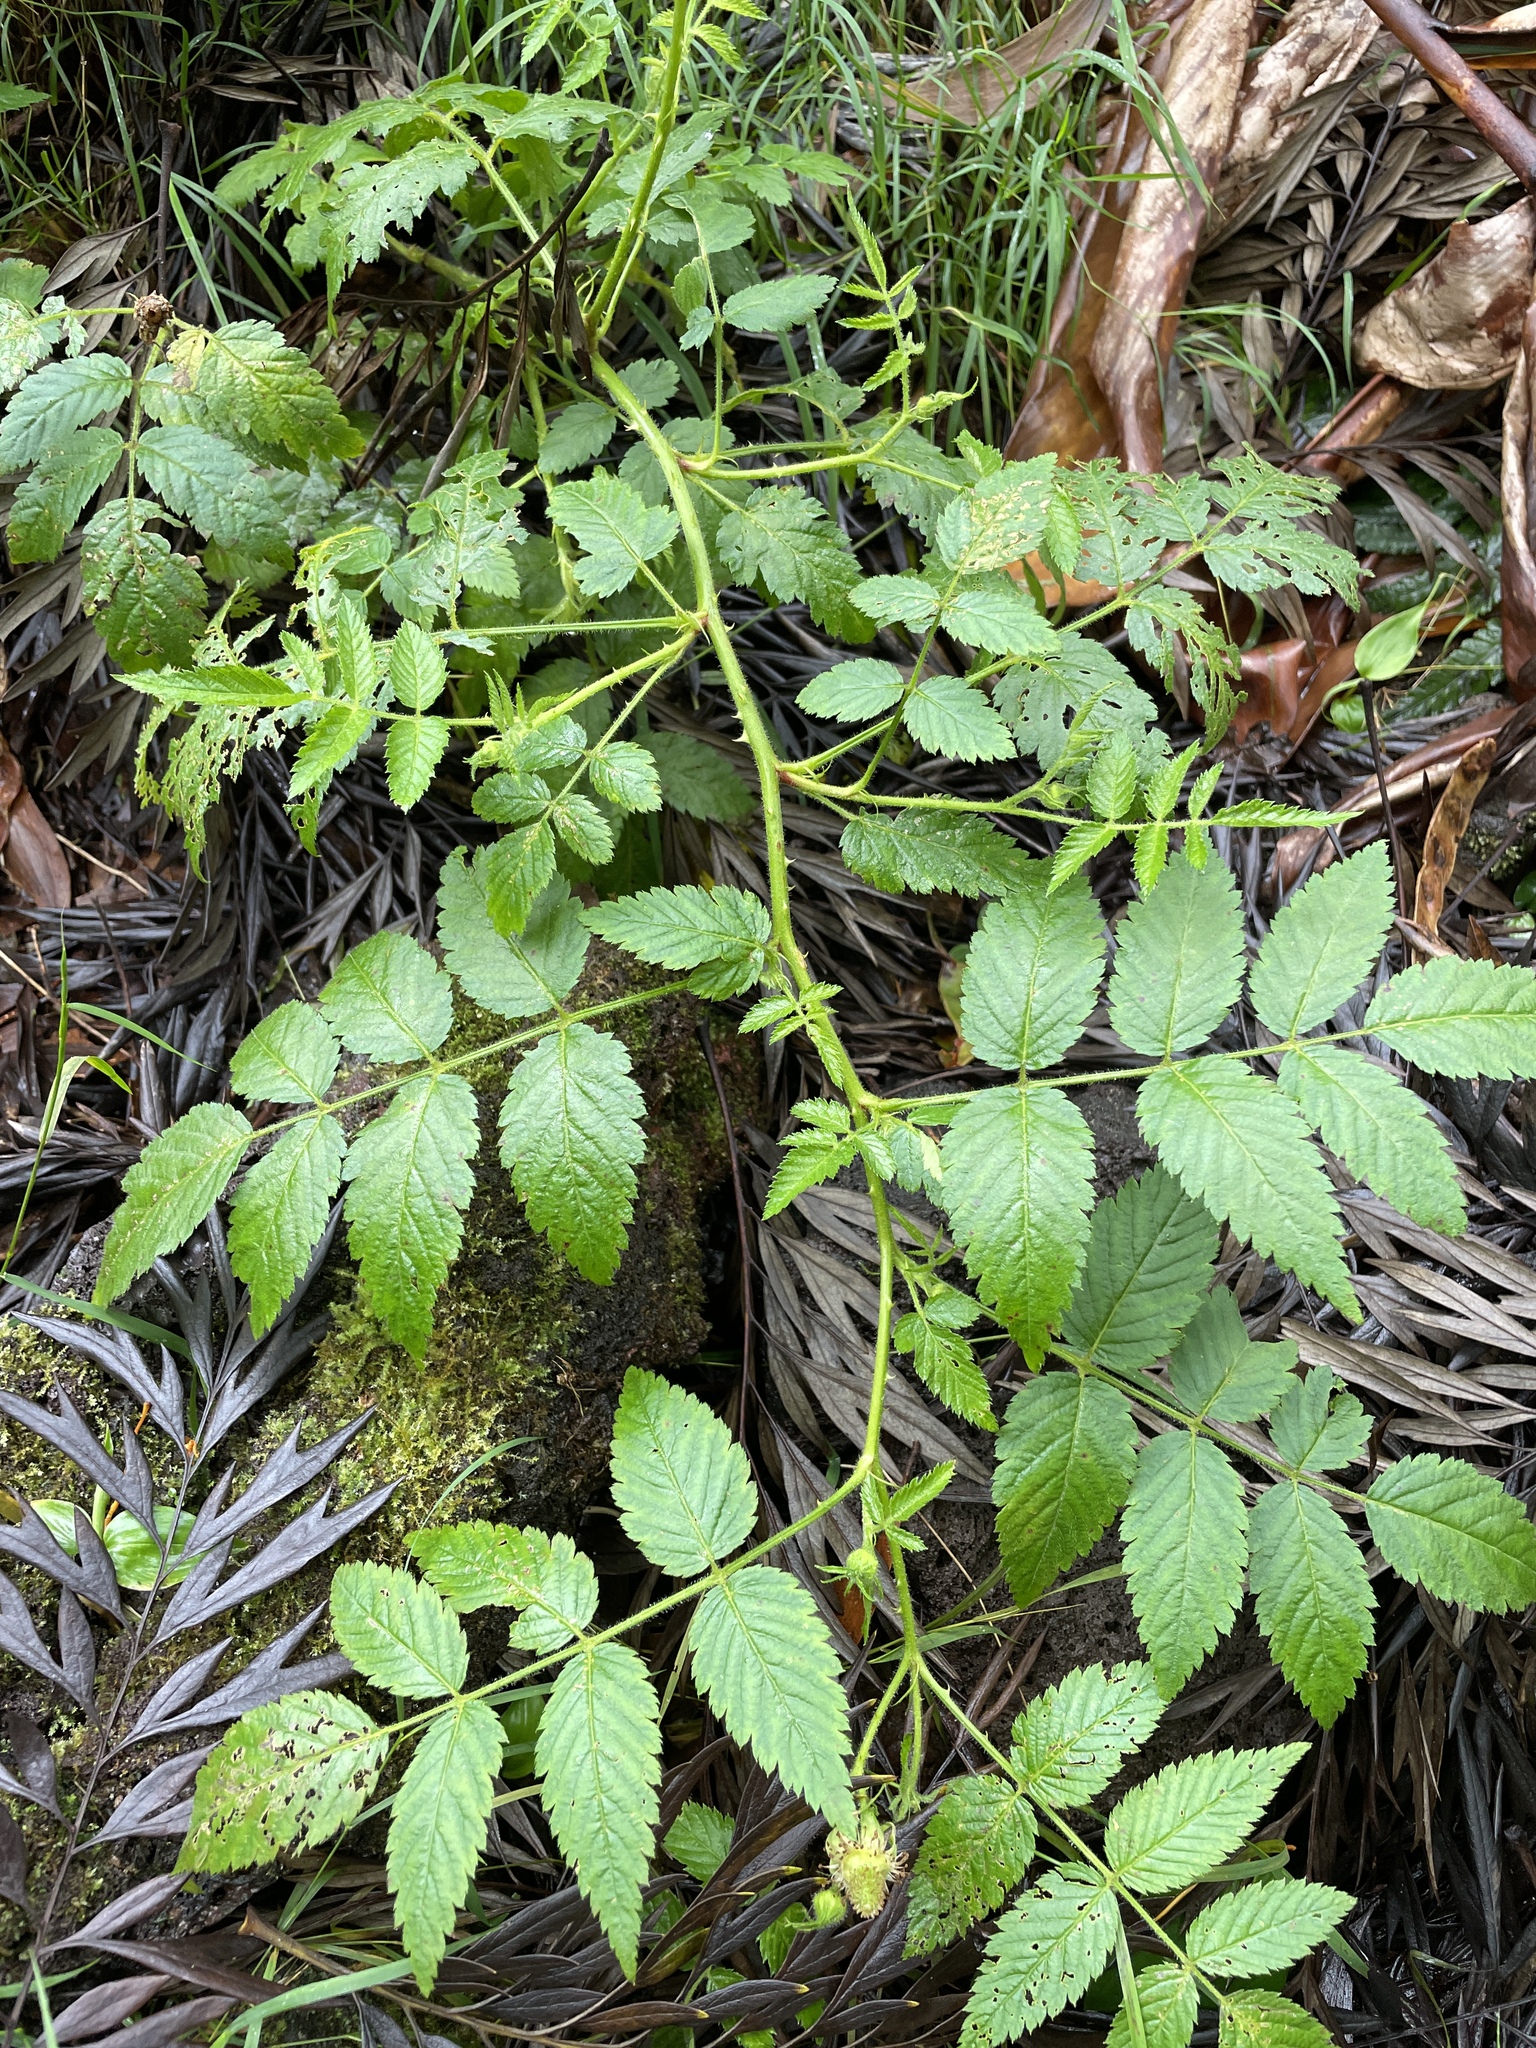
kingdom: Plantae
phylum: Tracheophyta
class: Magnoliopsida
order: Rosales
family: Rosaceae
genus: Rubus
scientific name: Rubus rosifolius
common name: Roseleaf raspberry
